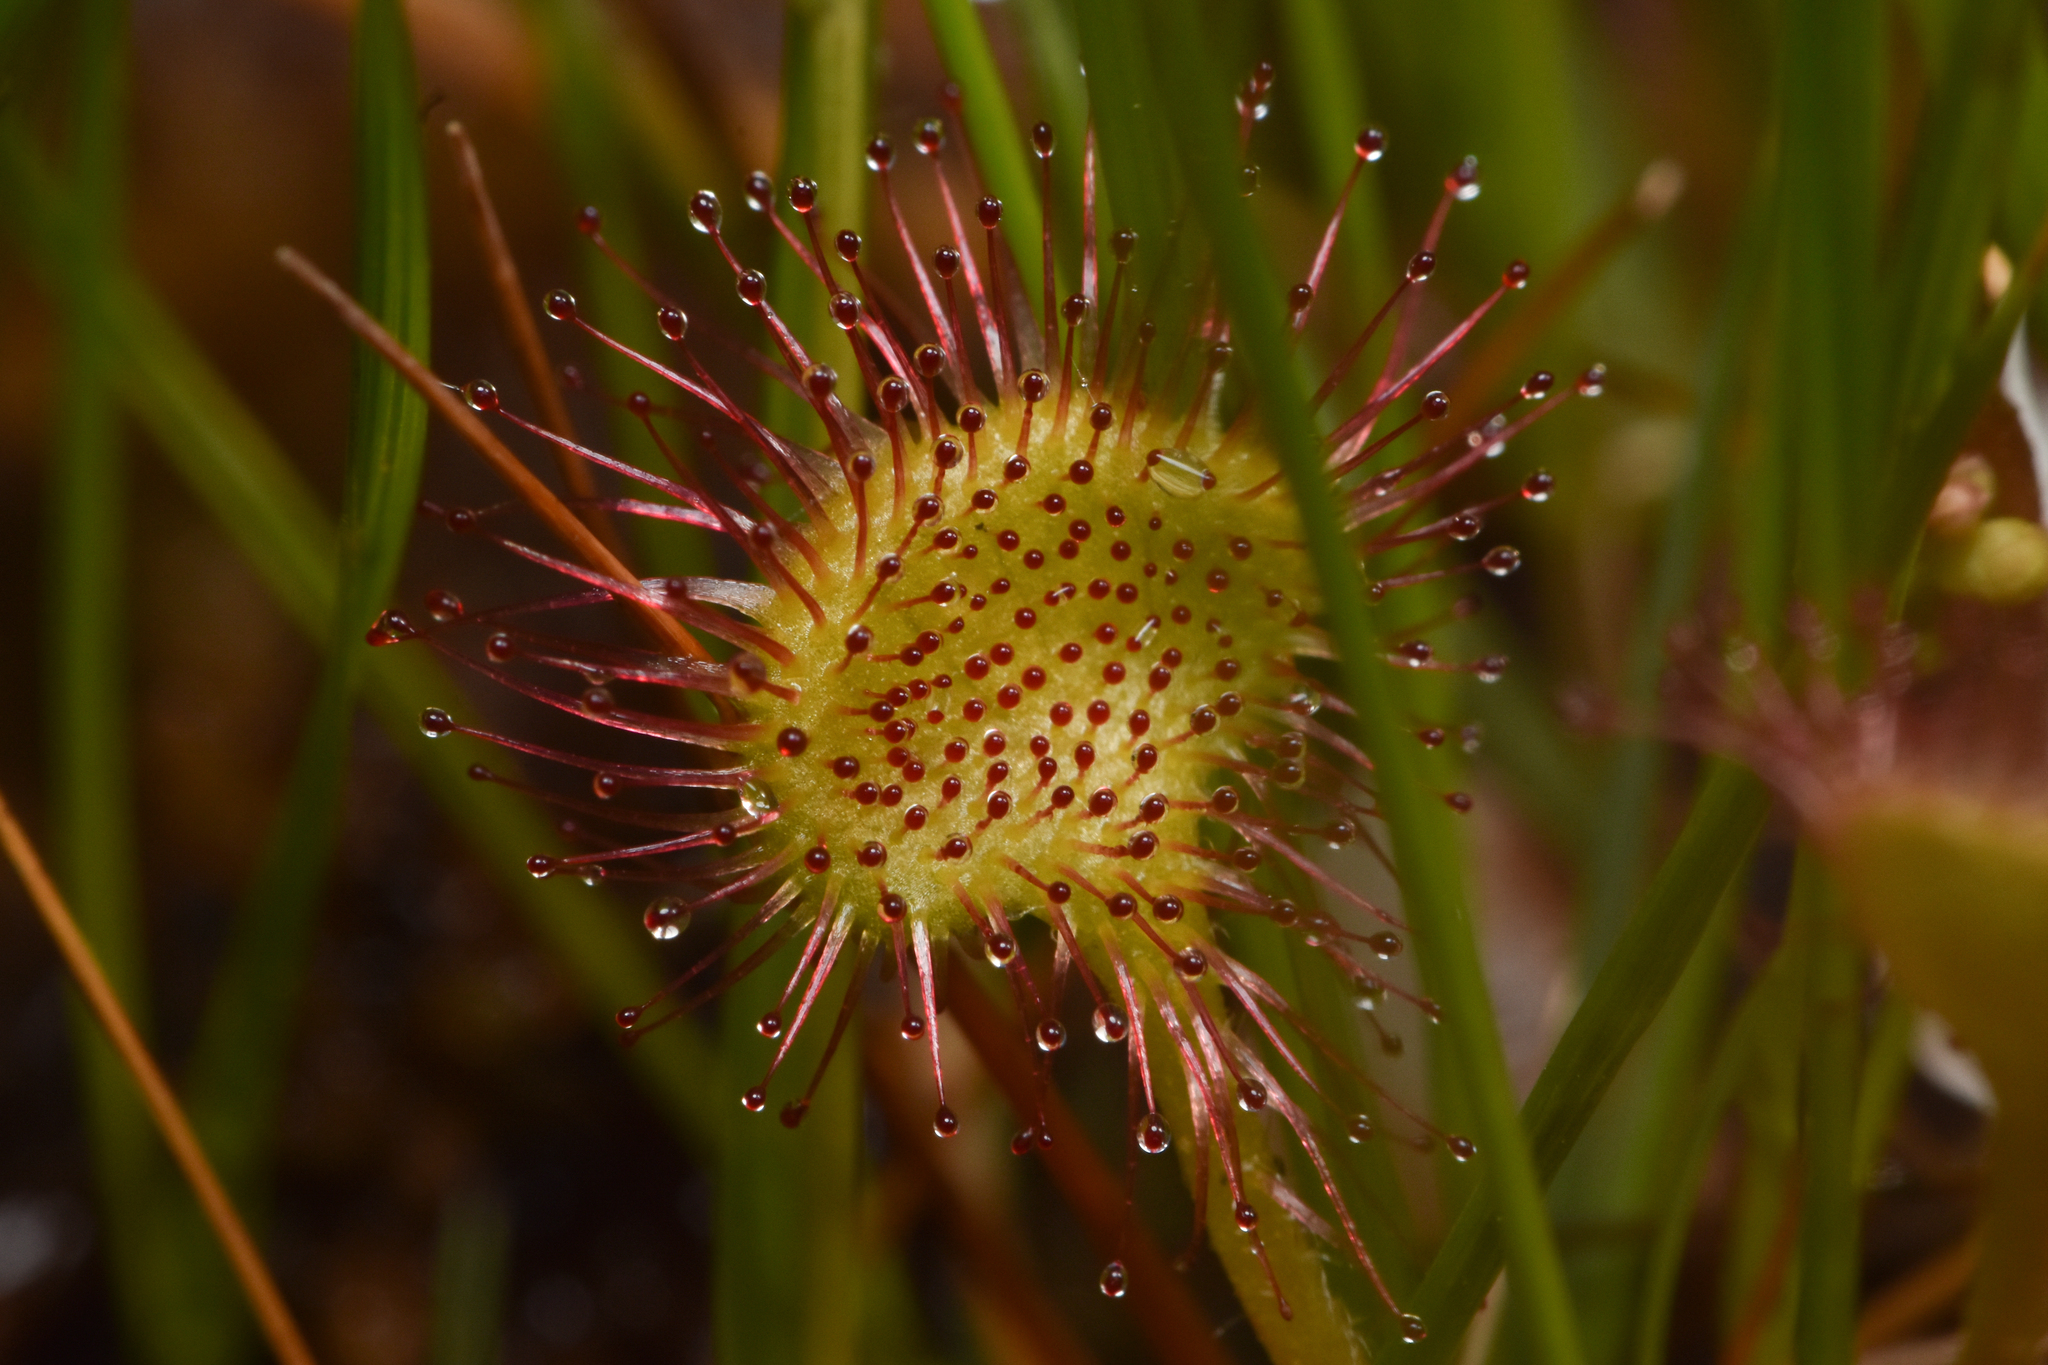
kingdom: Plantae
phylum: Tracheophyta
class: Magnoliopsida
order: Caryophyllales
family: Droseraceae
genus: Drosera
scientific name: Drosera rotundifolia
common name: Round-leaved sundew
